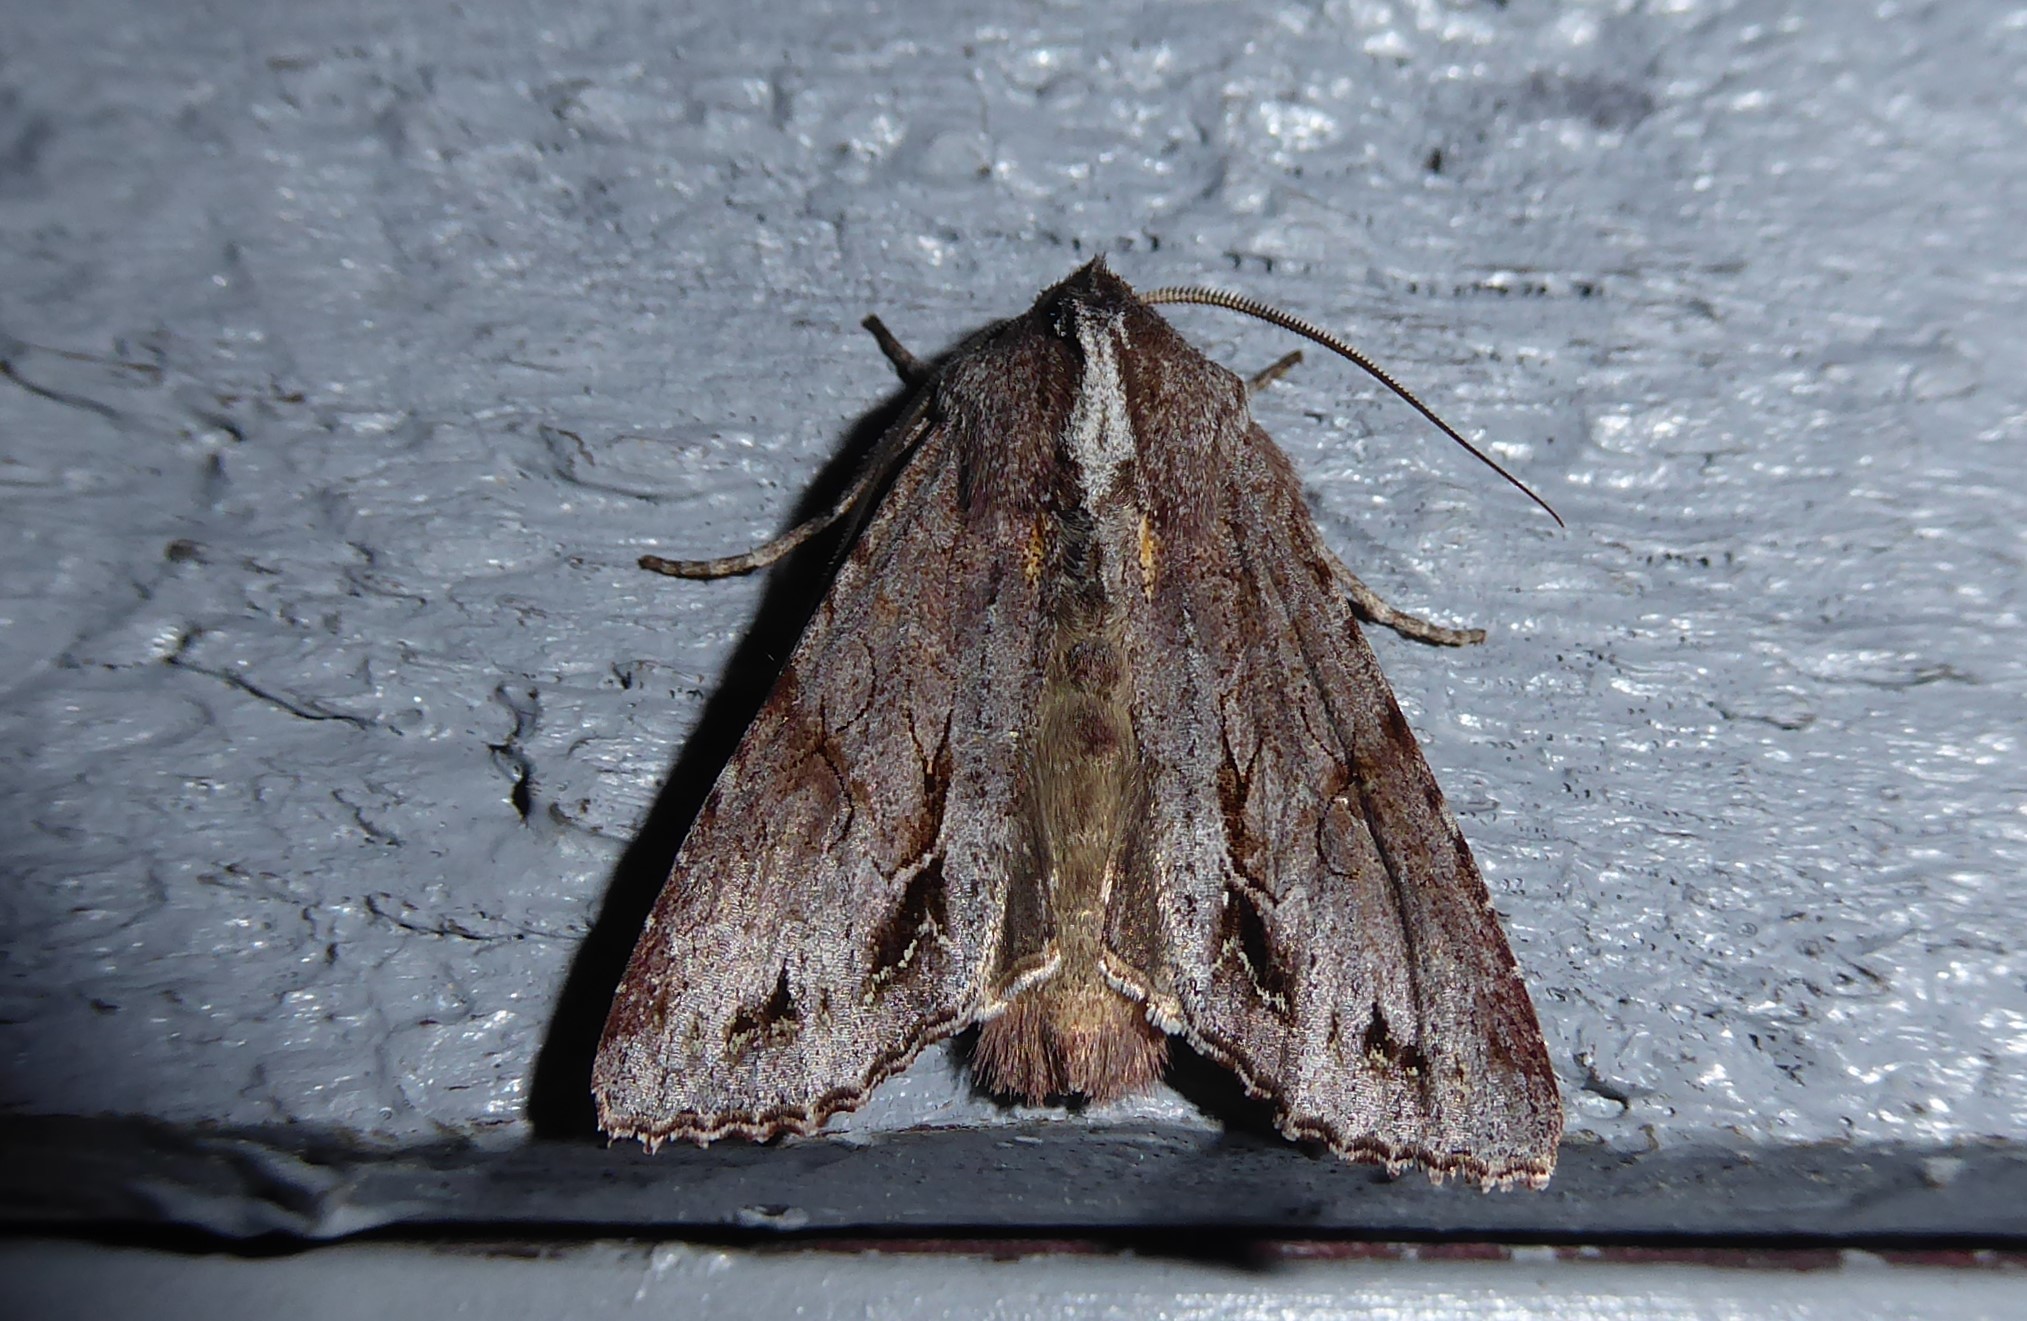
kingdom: Animalia
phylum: Arthropoda
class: Insecta
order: Lepidoptera
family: Noctuidae
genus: Ichneutica
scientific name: Ichneutica
